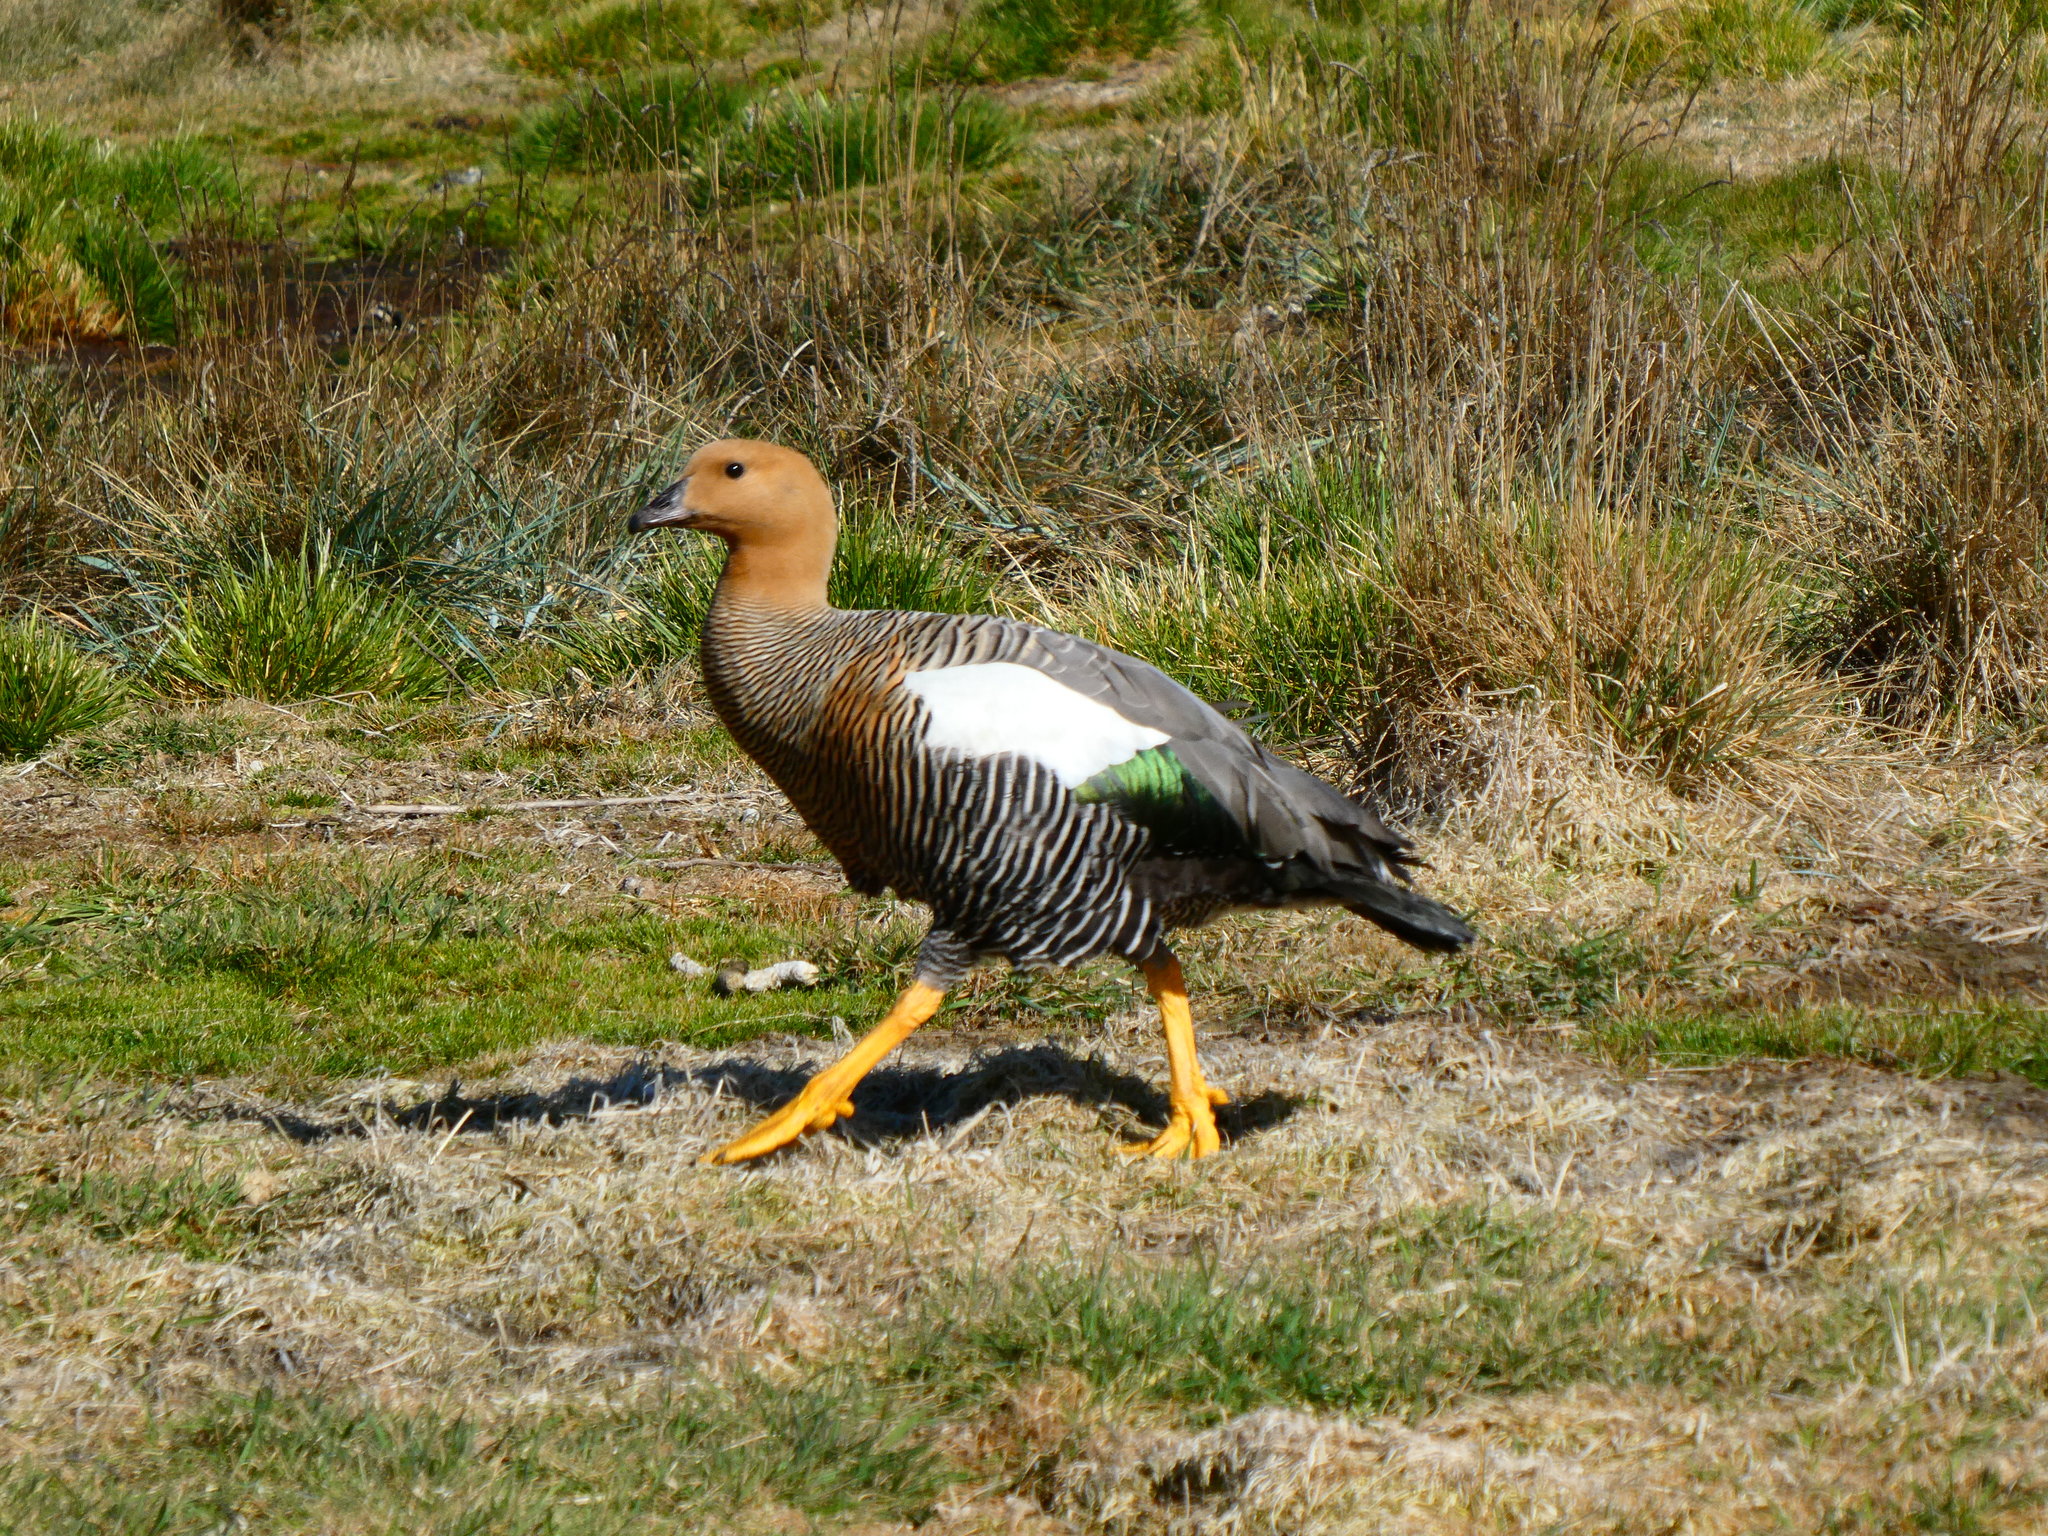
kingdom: Animalia
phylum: Chordata
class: Aves
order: Anseriformes
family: Anatidae
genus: Chloephaga
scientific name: Chloephaga picta
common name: Upland goose
